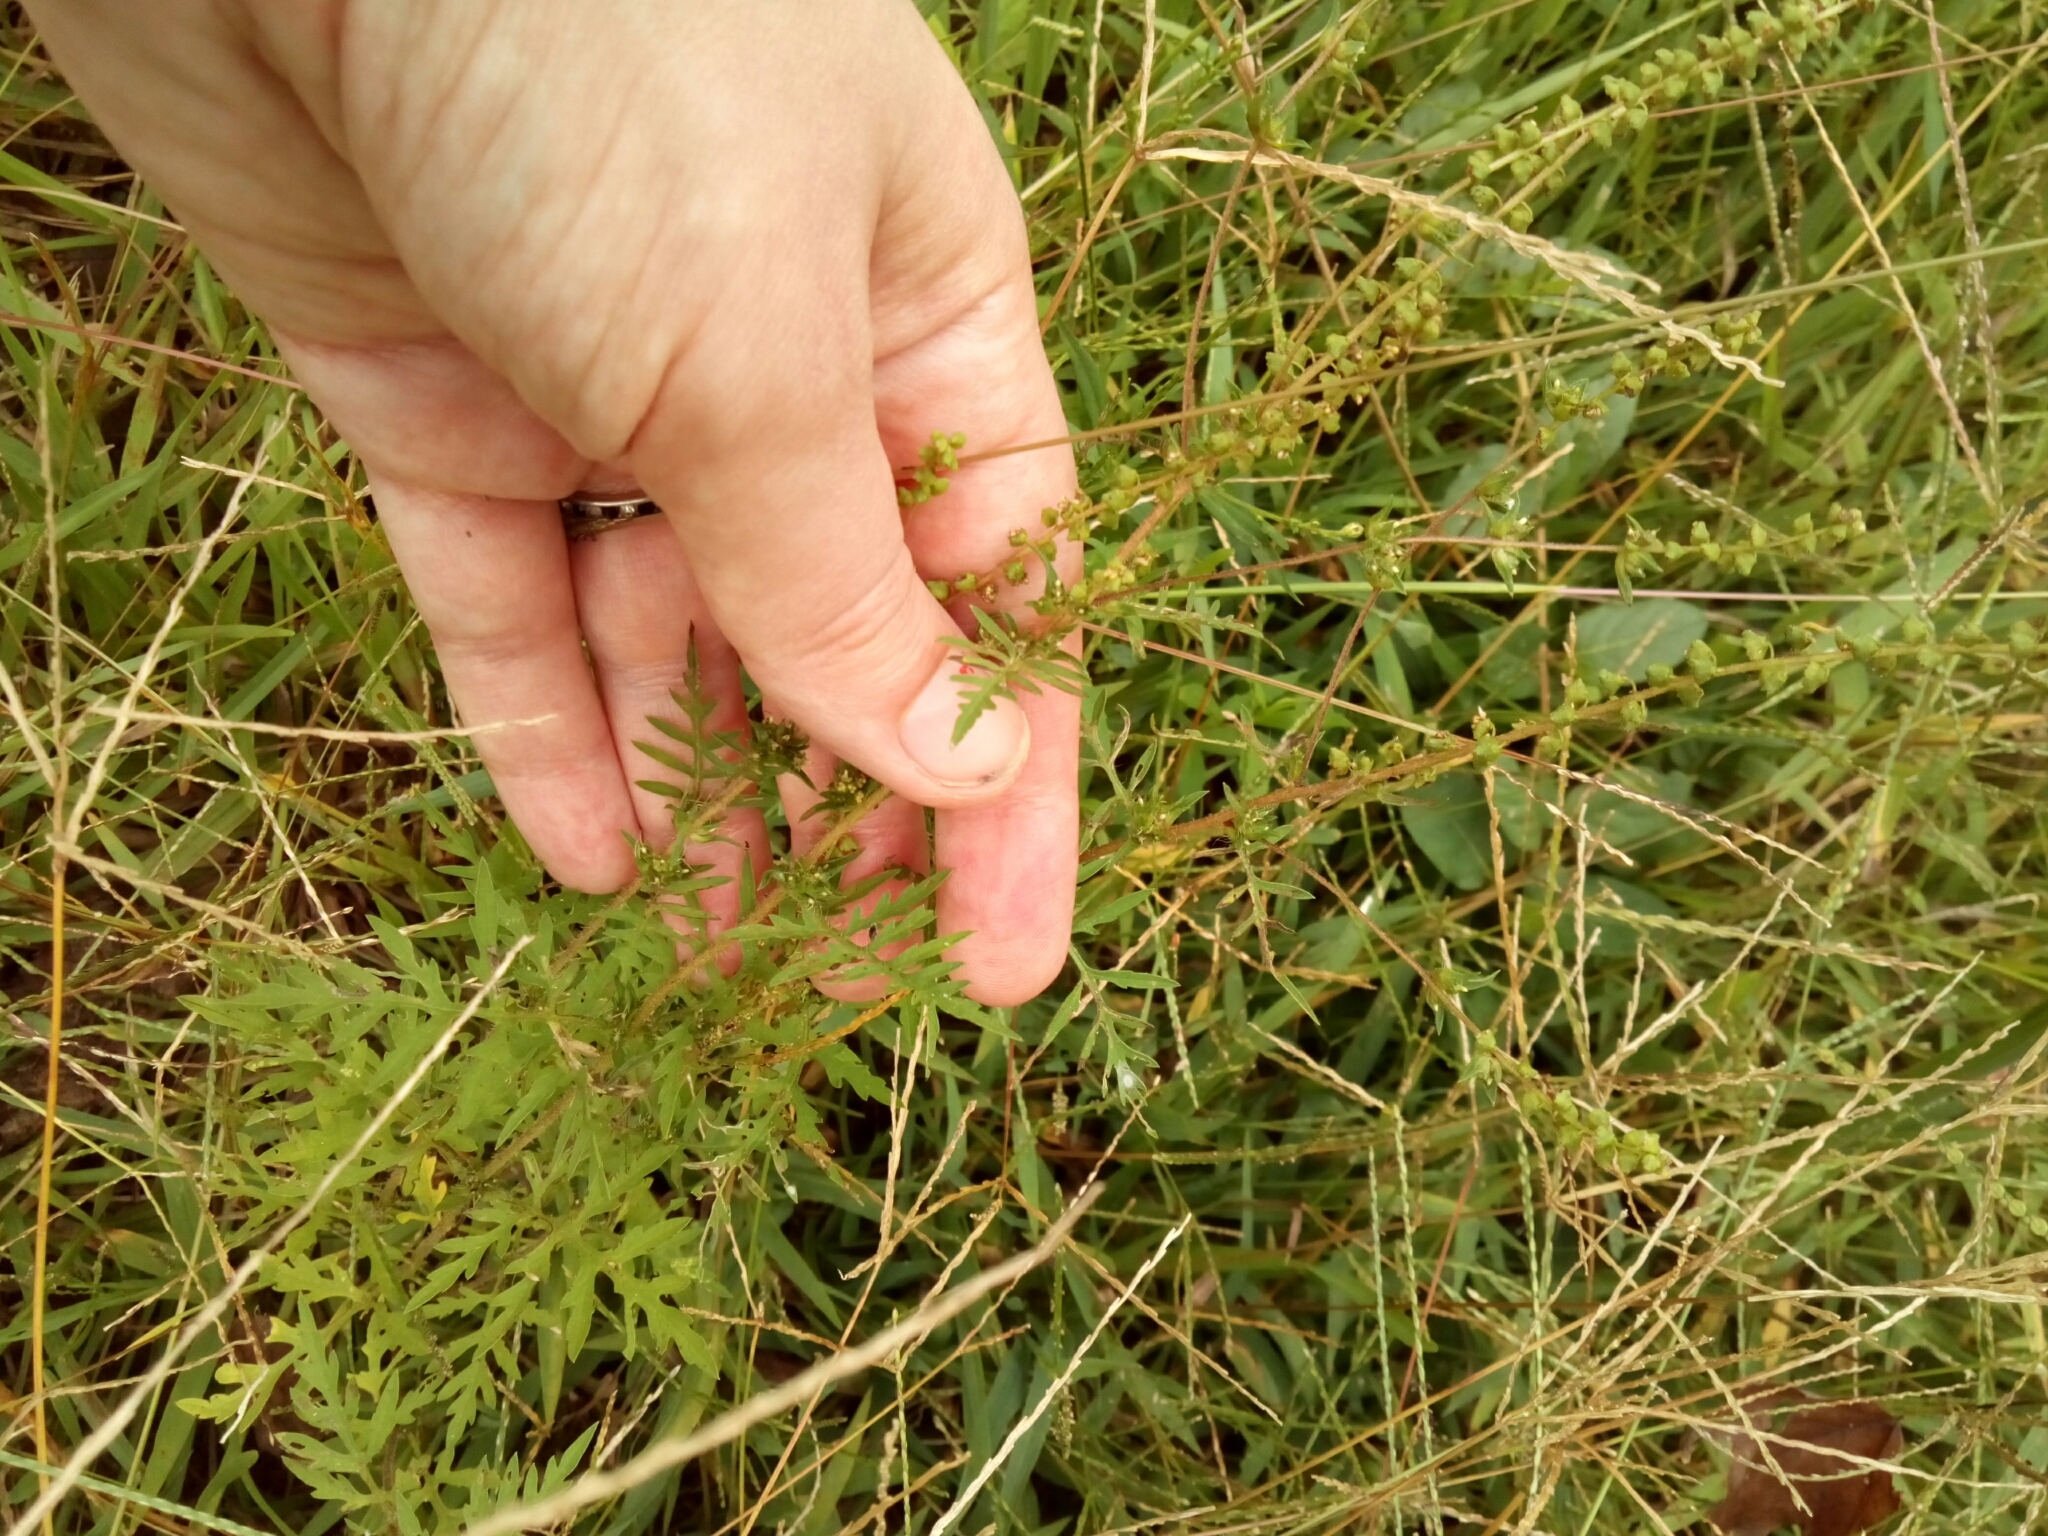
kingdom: Plantae
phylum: Tracheophyta
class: Magnoliopsida
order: Asterales
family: Asteraceae
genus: Ambrosia
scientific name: Ambrosia artemisiifolia
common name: Annual ragweed
